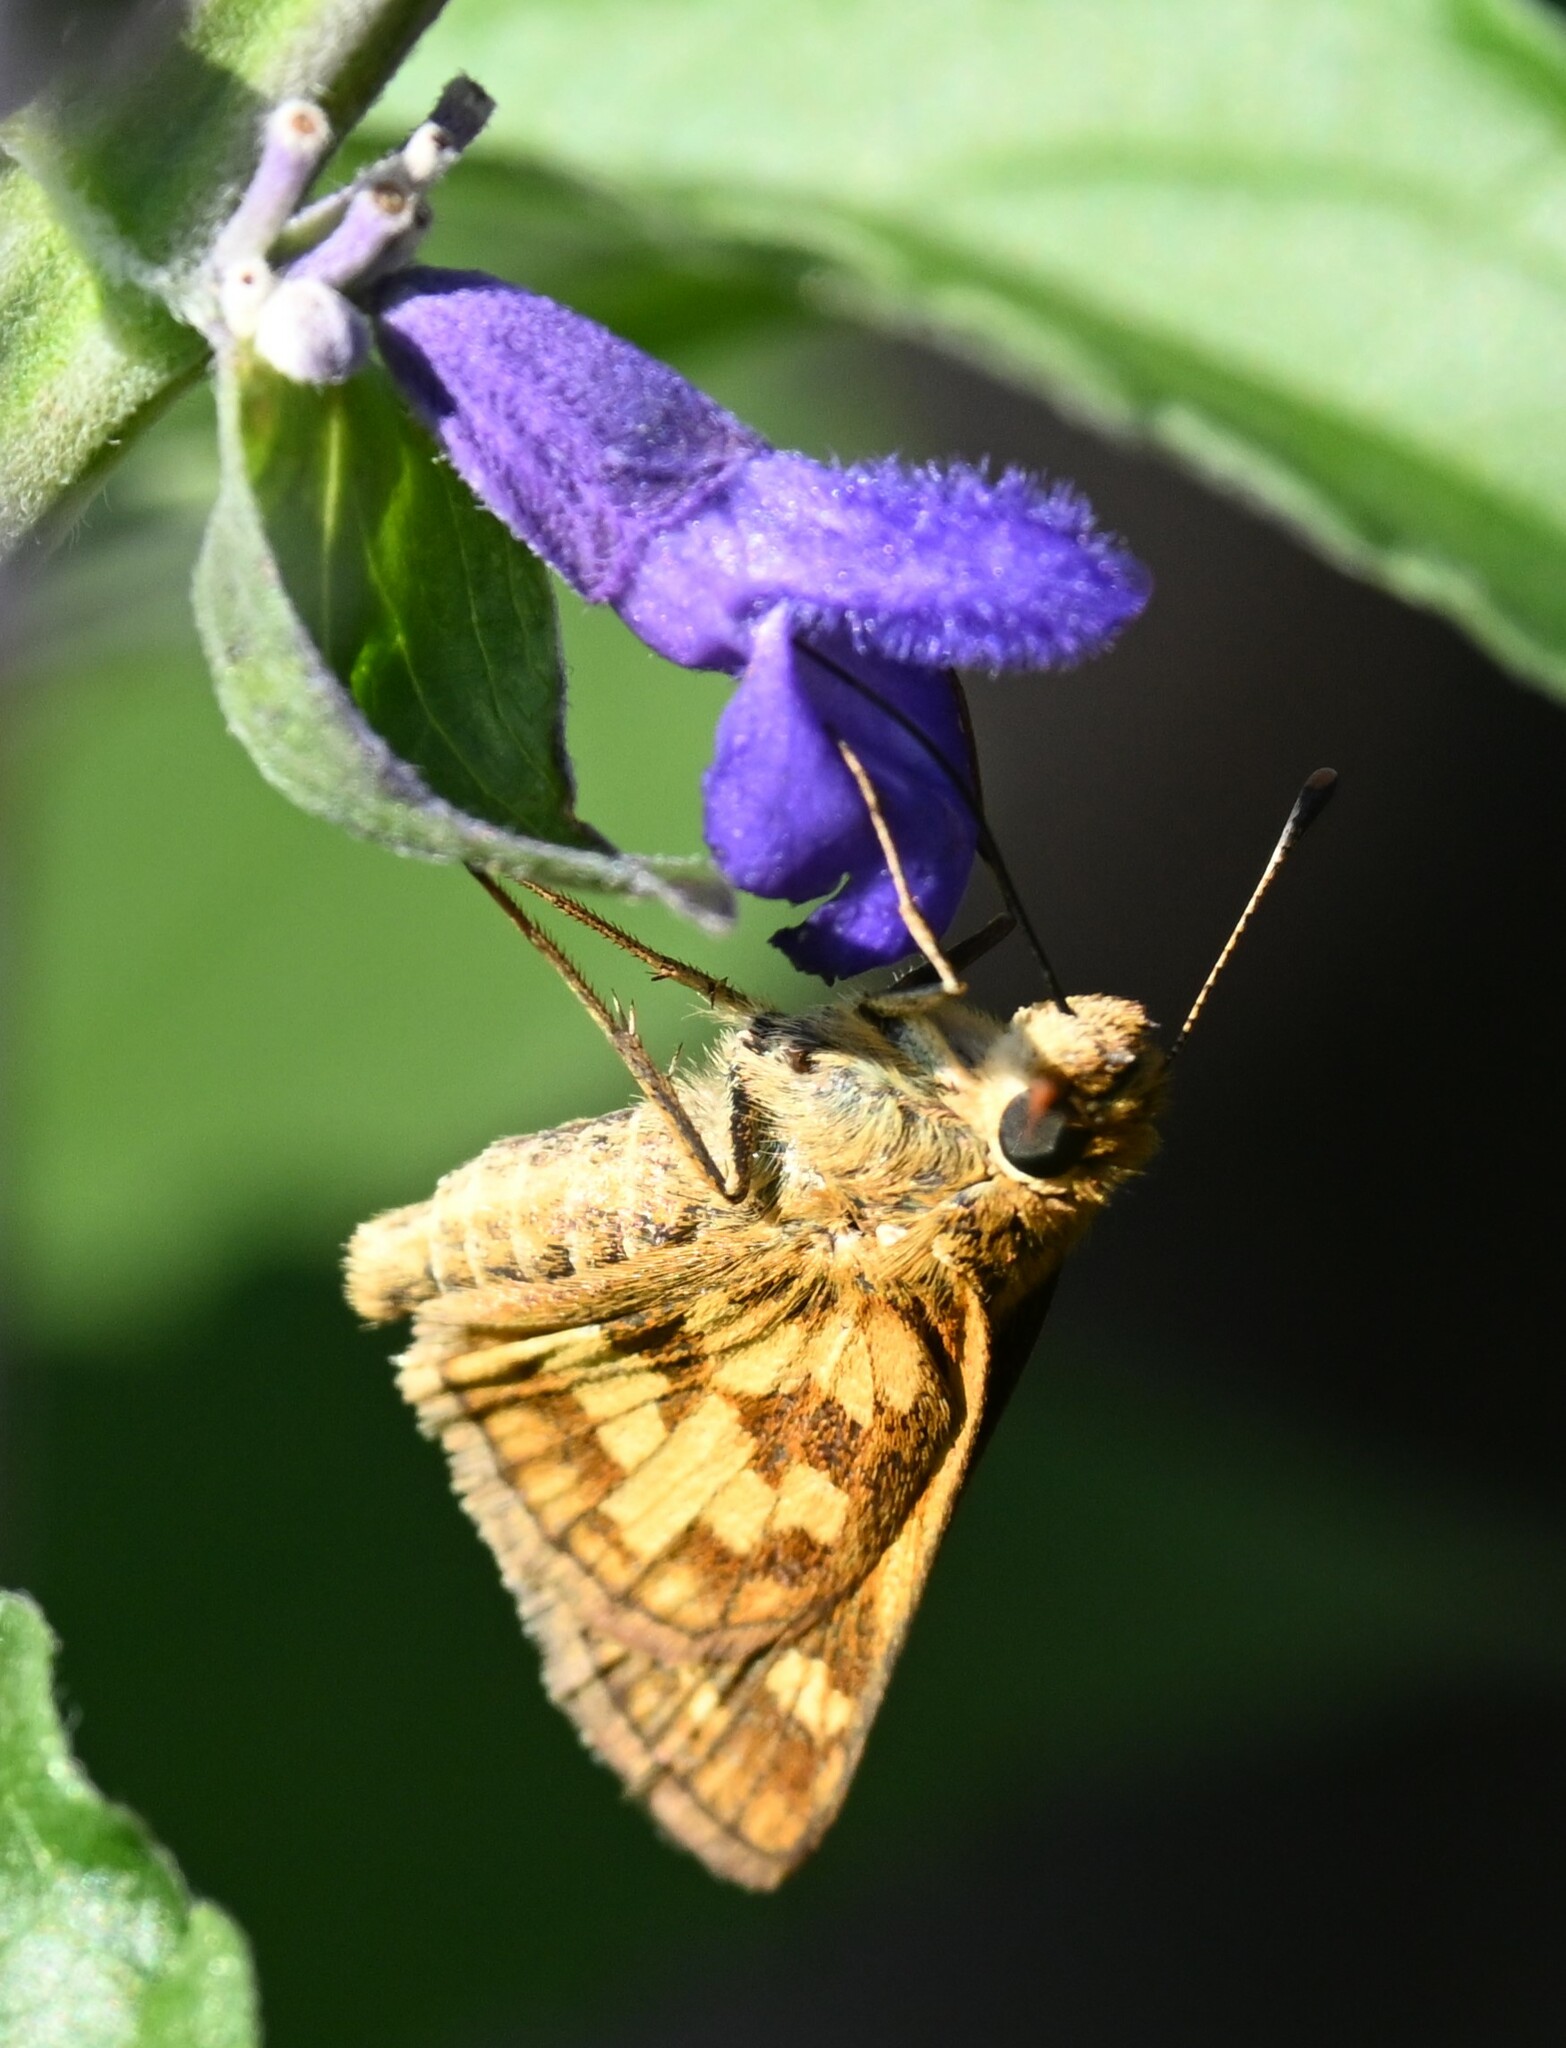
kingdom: Animalia
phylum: Arthropoda
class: Insecta
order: Lepidoptera
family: Hesperiidae
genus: Polites
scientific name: Polites coras
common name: Peck's skipper
